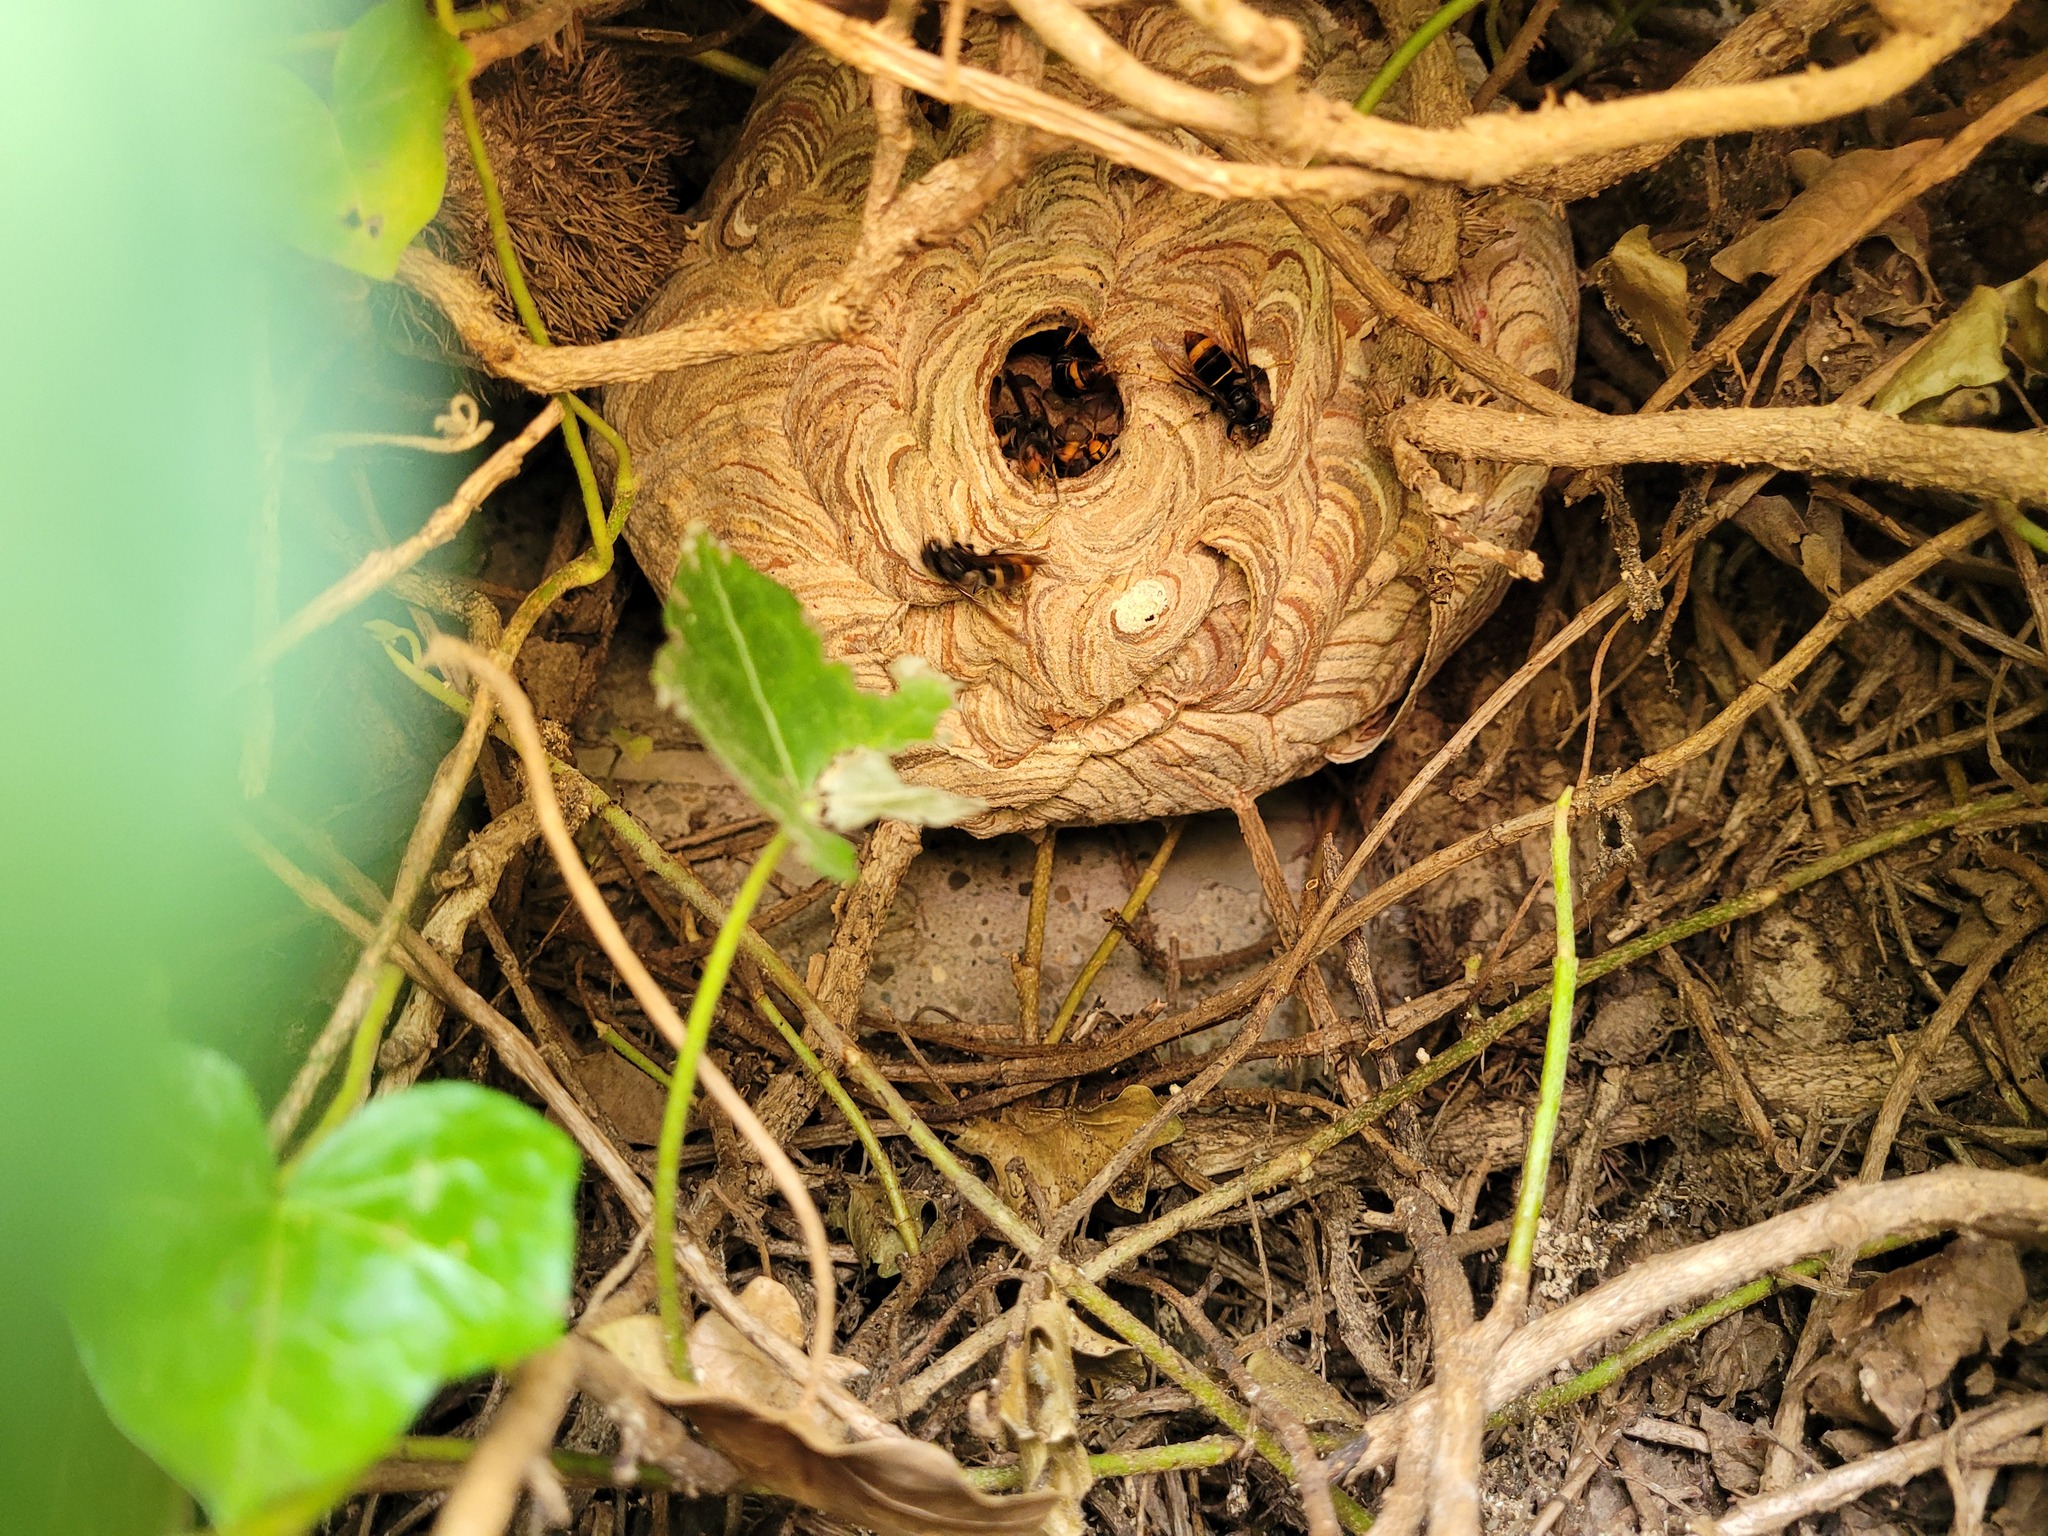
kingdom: Animalia
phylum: Arthropoda
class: Insecta
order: Hymenoptera
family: Vespidae
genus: Vespa
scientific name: Vespa velutina
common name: Asian hornet
